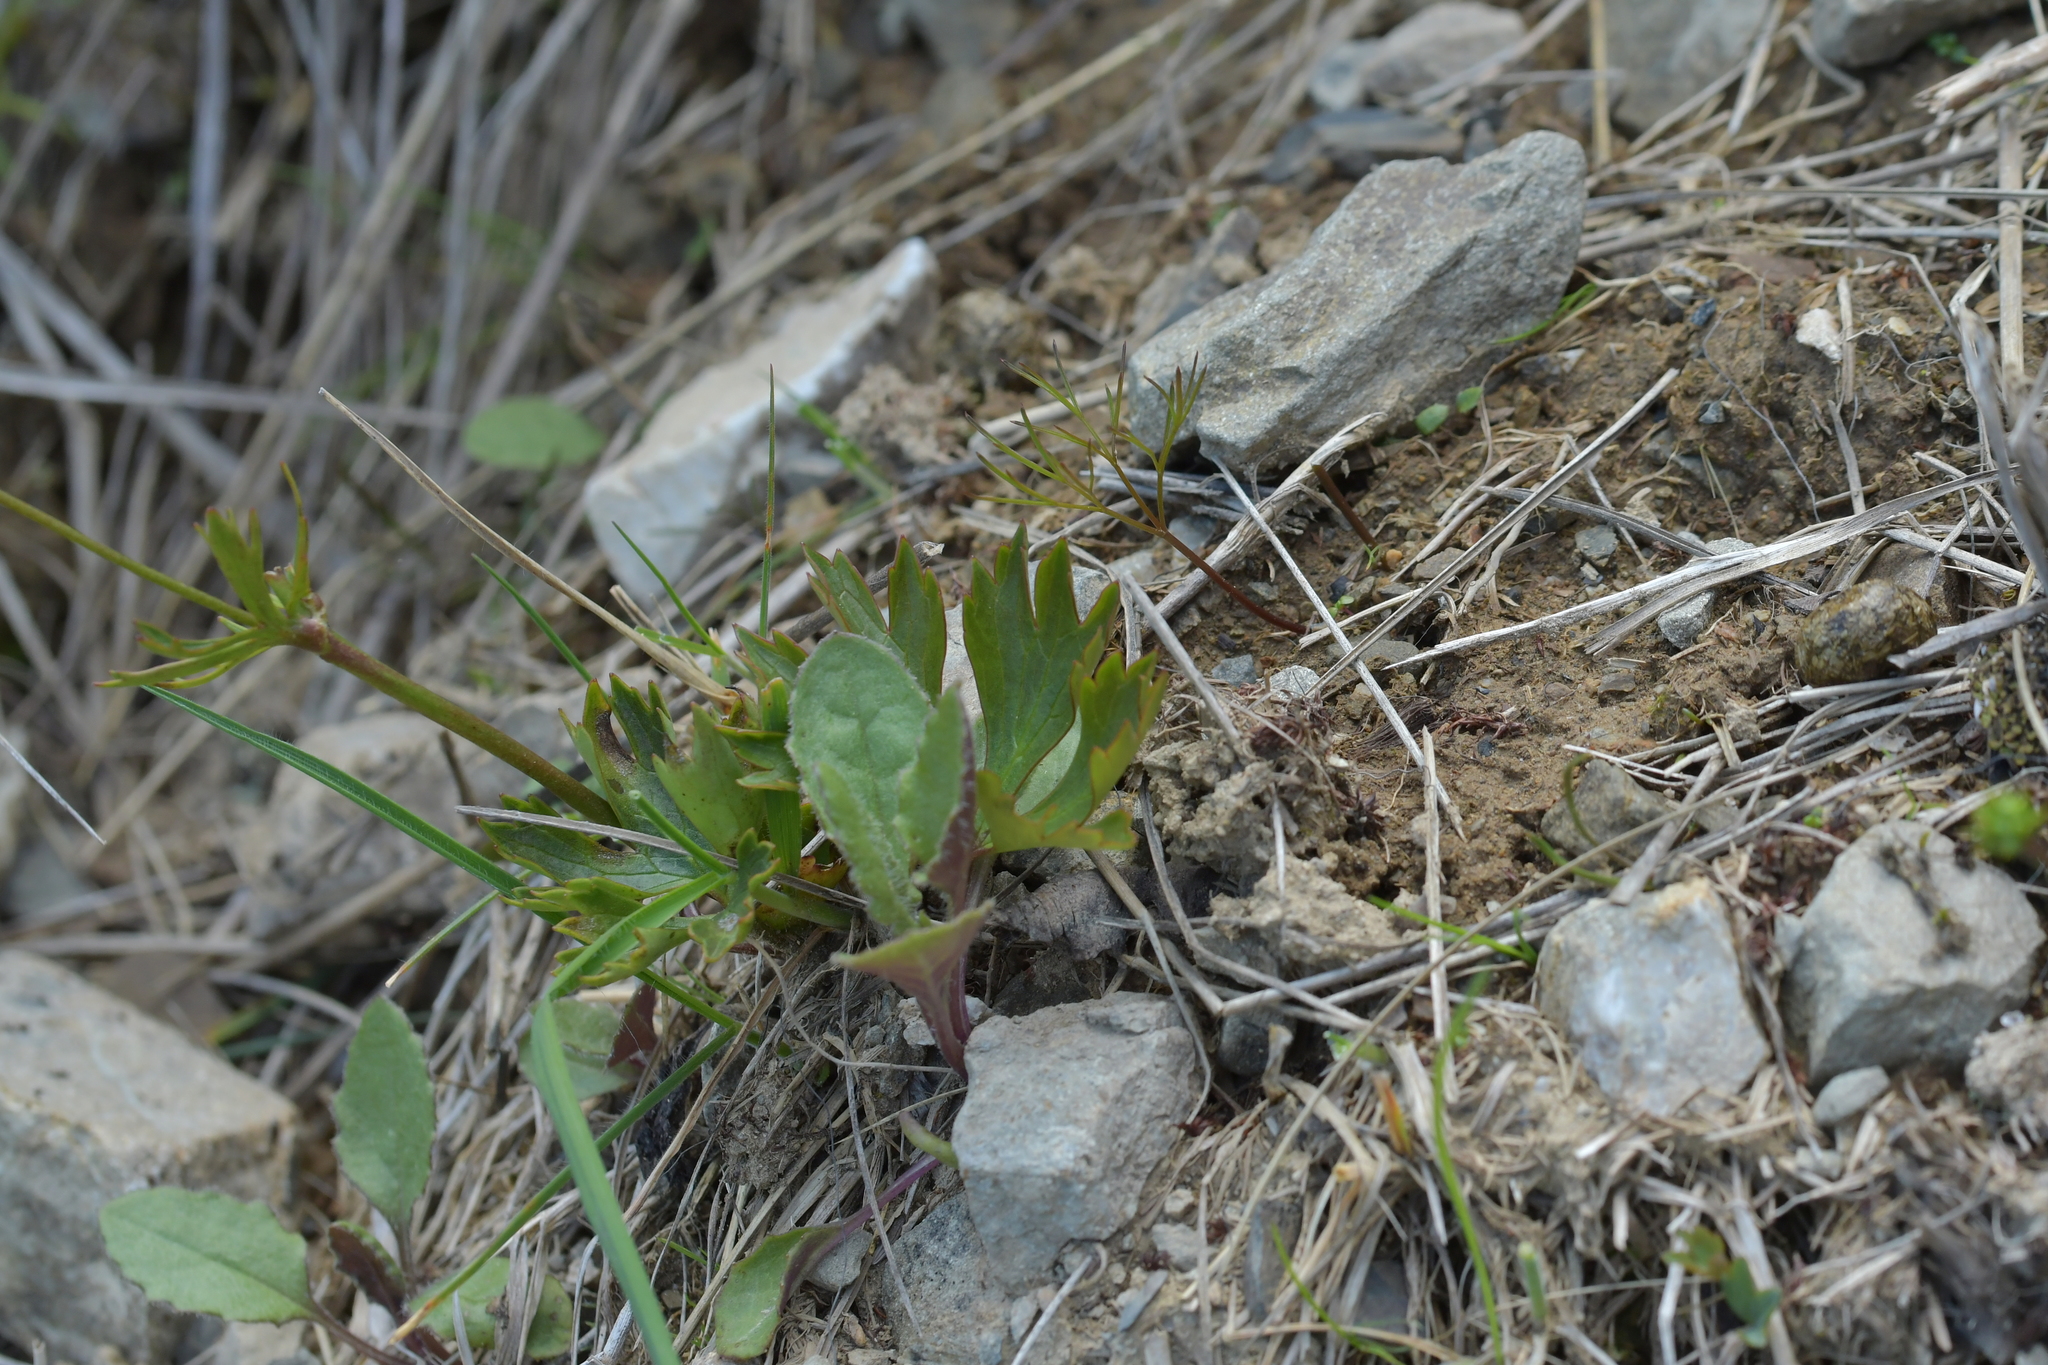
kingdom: Plantae
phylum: Tracheophyta
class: Magnoliopsida
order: Ranunculales
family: Ranunculaceae
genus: Ranunculus
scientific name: Ranunculus verticillatus
